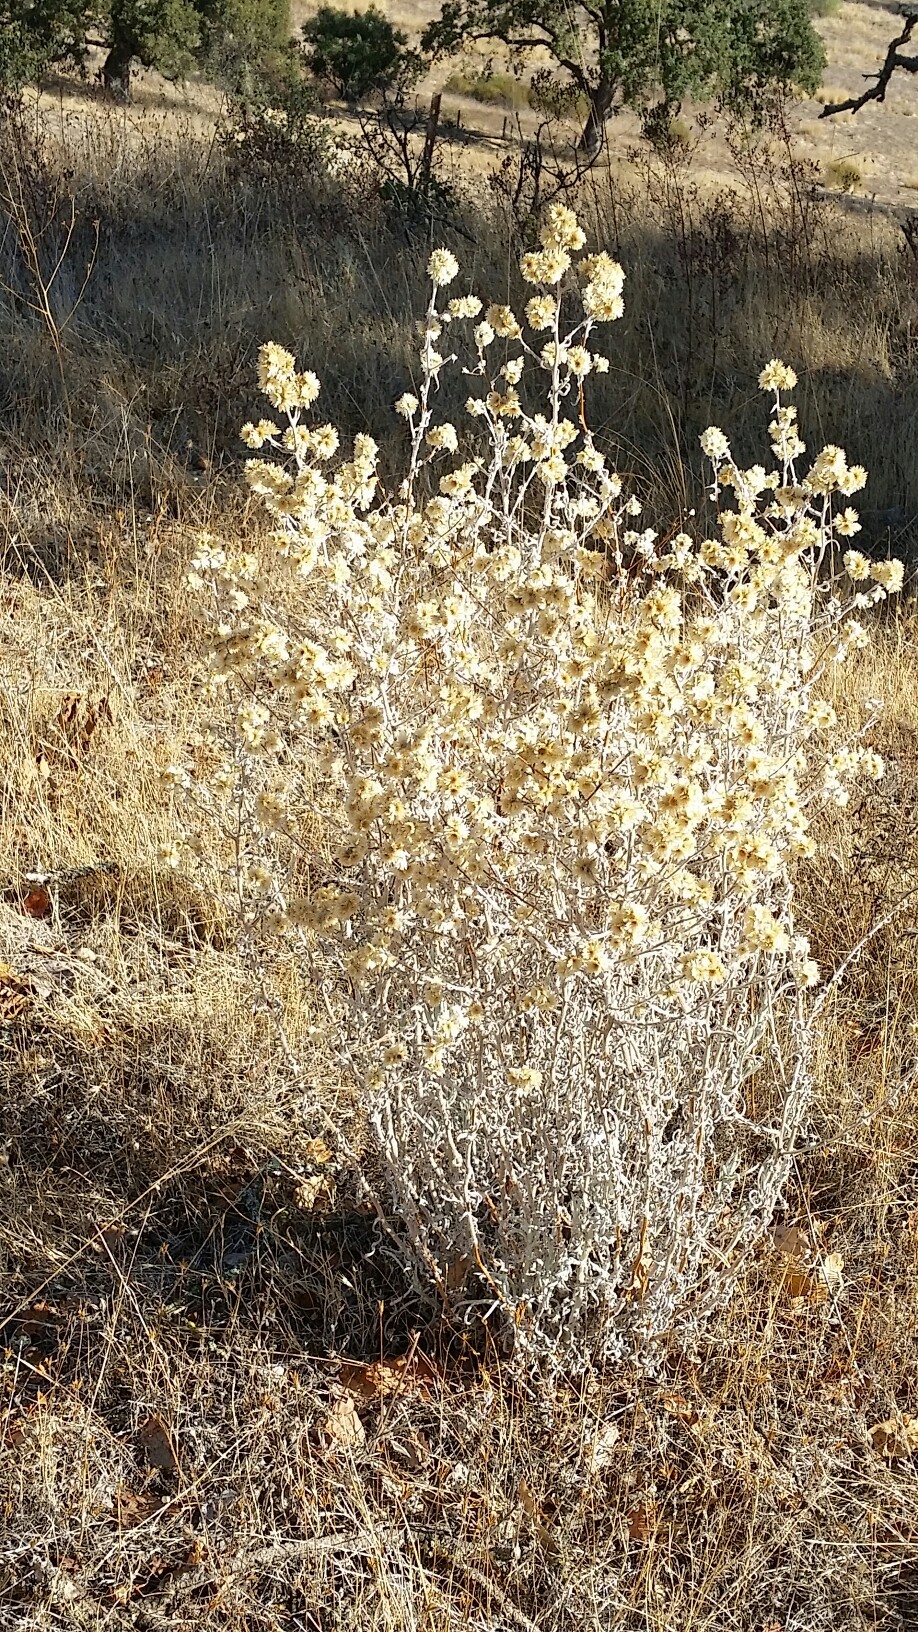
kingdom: Plantae
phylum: Tracheophyta
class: Magnoliopsida
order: Asterales
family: Asteraceae
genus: Pseudognaphalium
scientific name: Pseudognaphalium californicum
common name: California rabbit-tobacco
